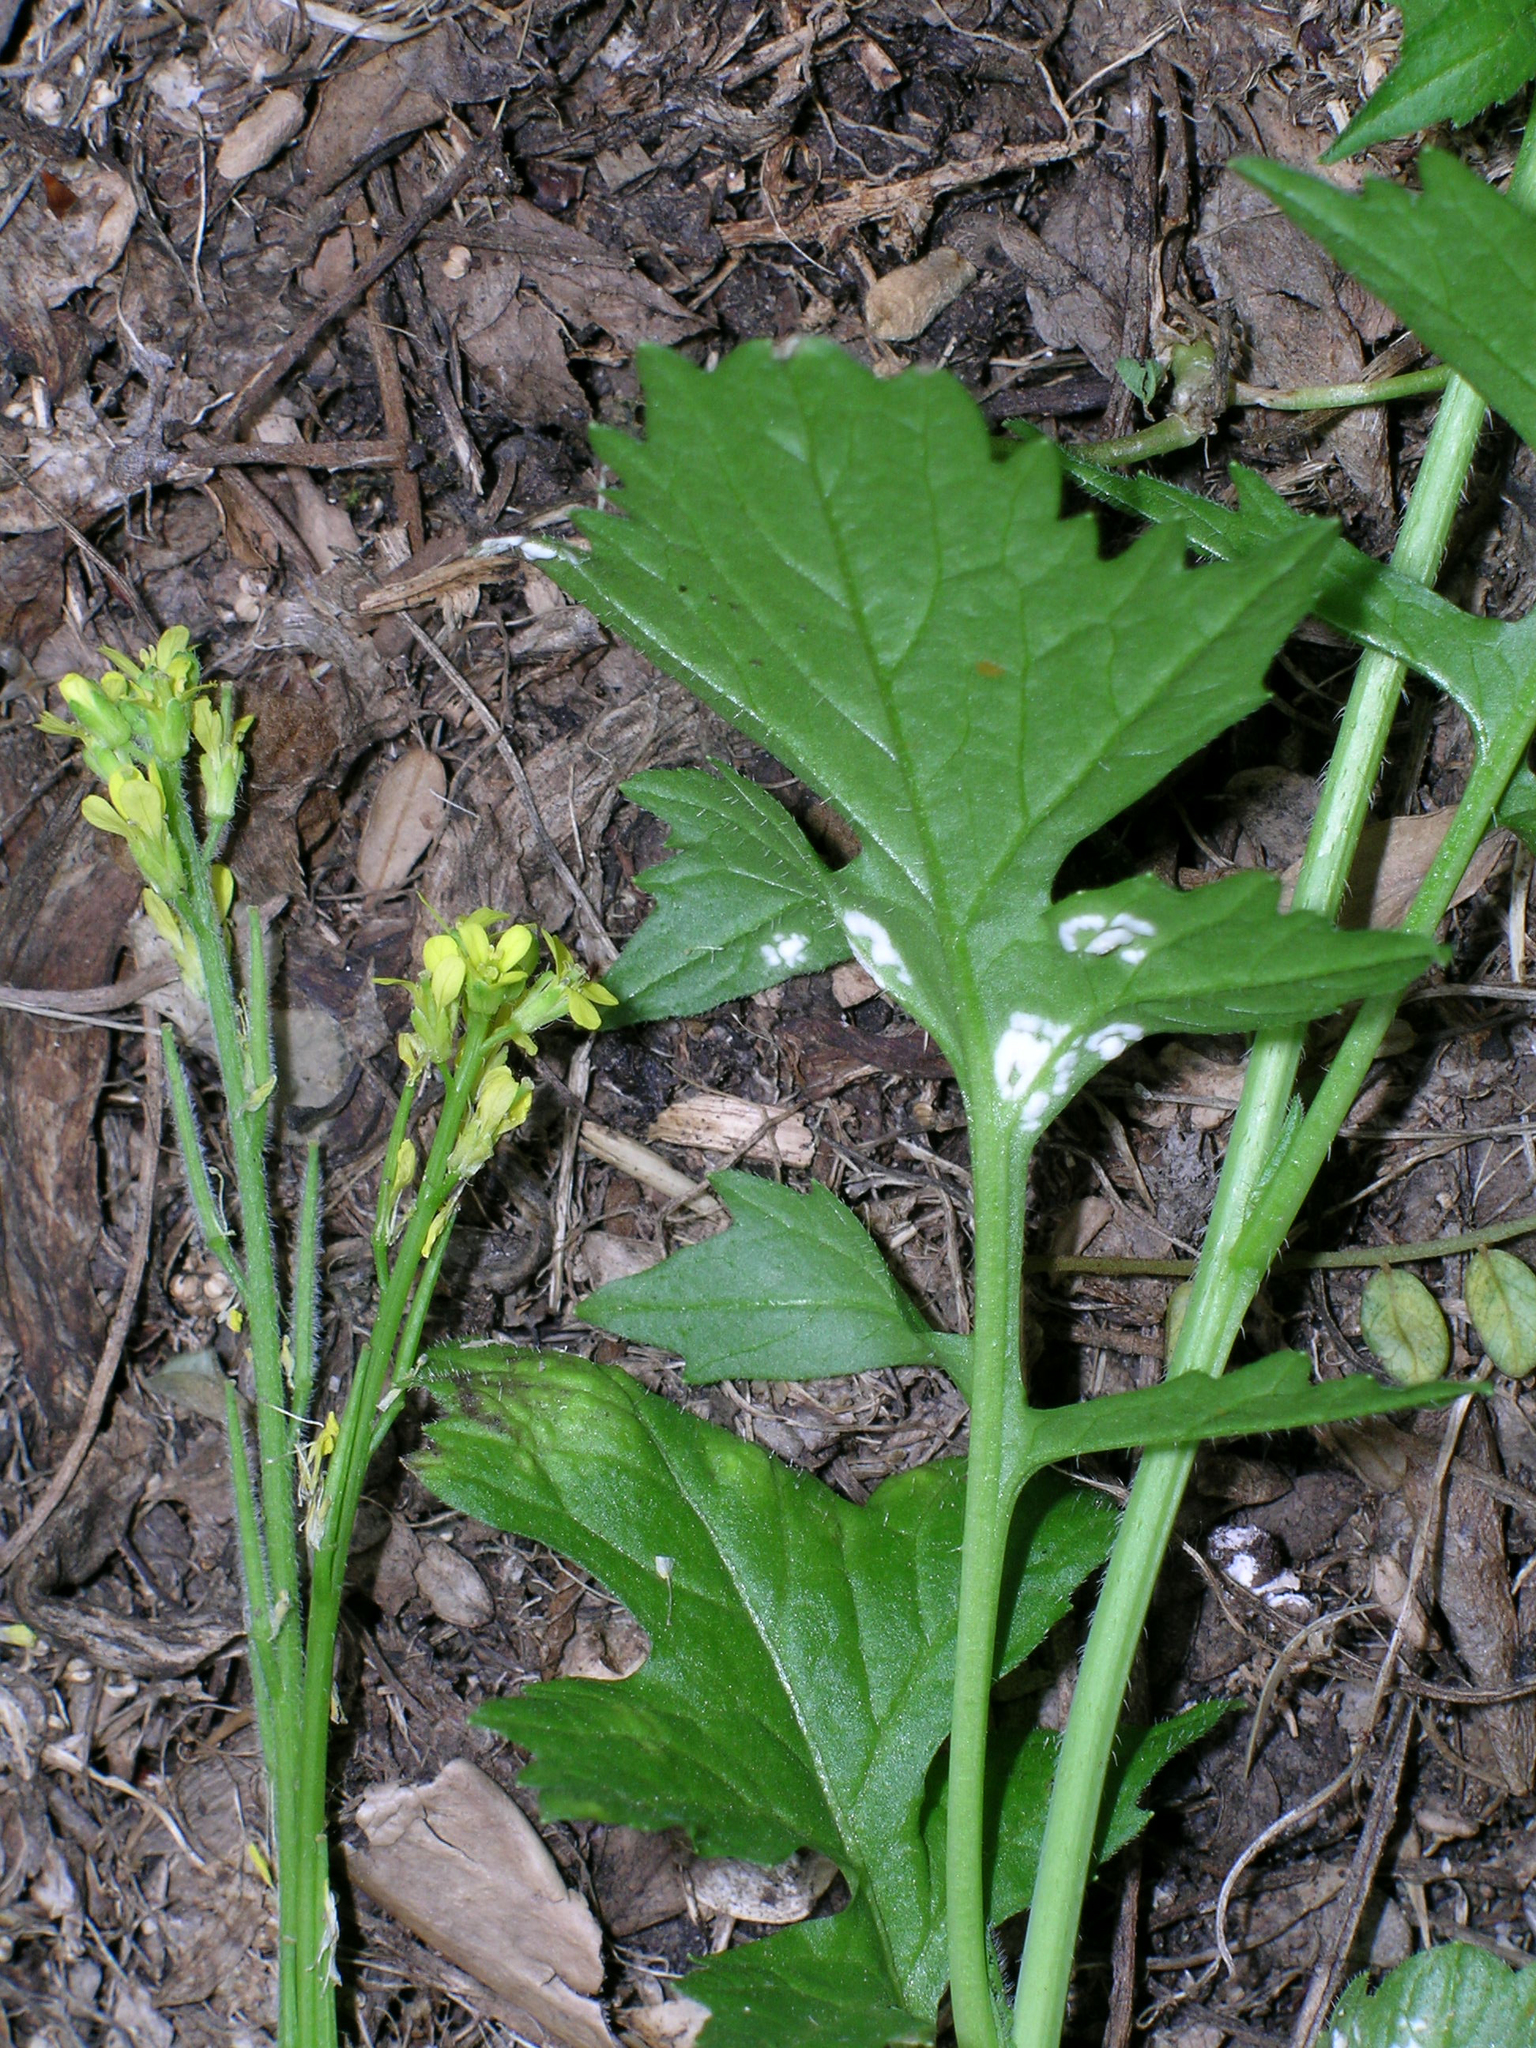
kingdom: Chromista
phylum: Oomycota
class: Peronosporea
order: Albuginales
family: Albuginaceae
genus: Albugo
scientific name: Albugo candida
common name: Crucifer white blister
